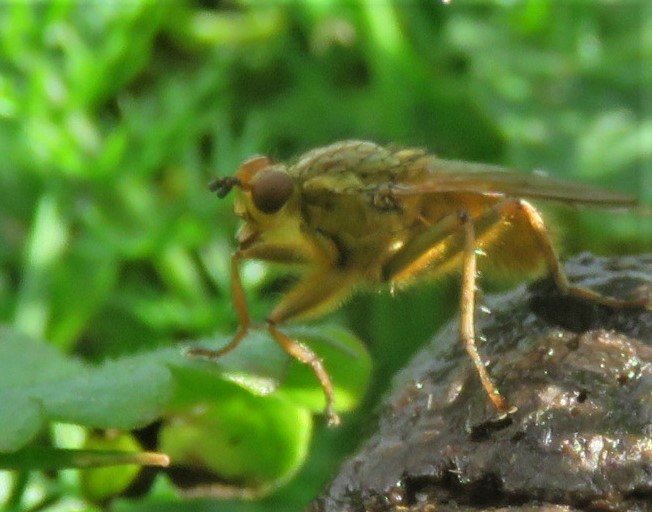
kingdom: Animalia
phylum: Arthropoda
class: Insecta
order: Diptera
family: Scathophagidae
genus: Scathophaga
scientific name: Scathophaga stercoraria
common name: Yellow dung fly
